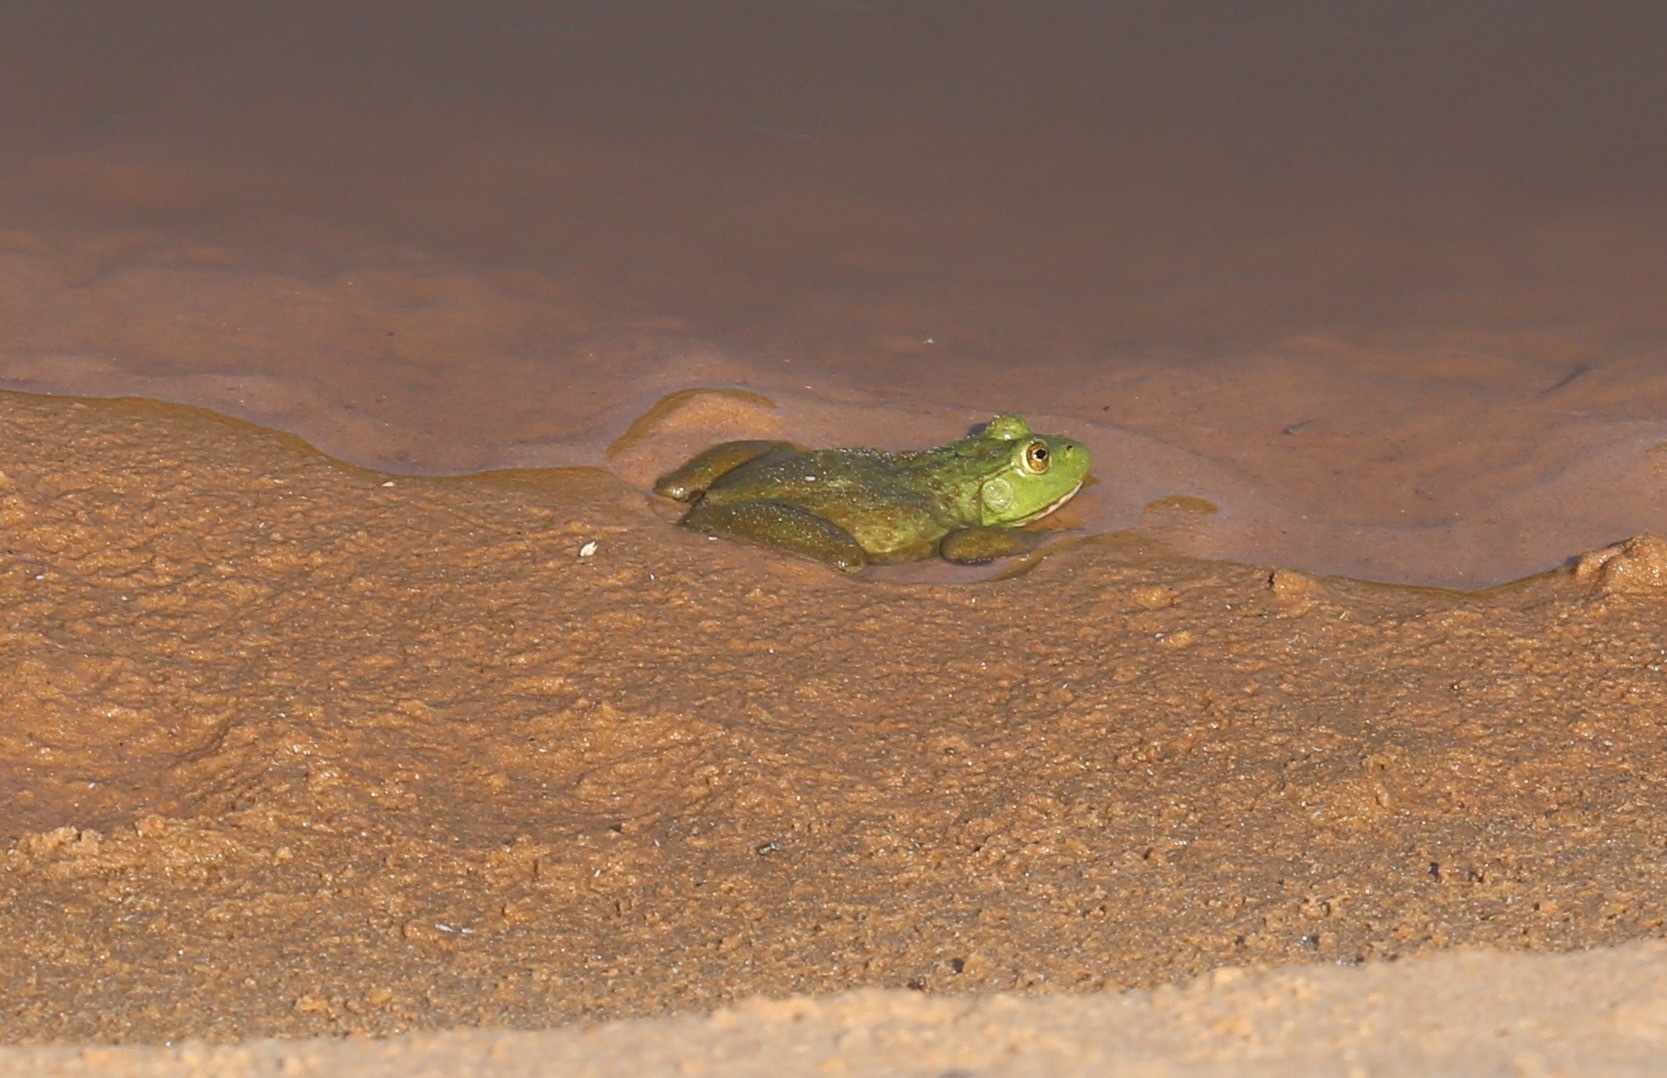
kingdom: Animalia
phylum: Chordata
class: Amphibia
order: Anura
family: Ranidae
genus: Lithobates
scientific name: Lithobates catesbeianus
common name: American bullfrog
